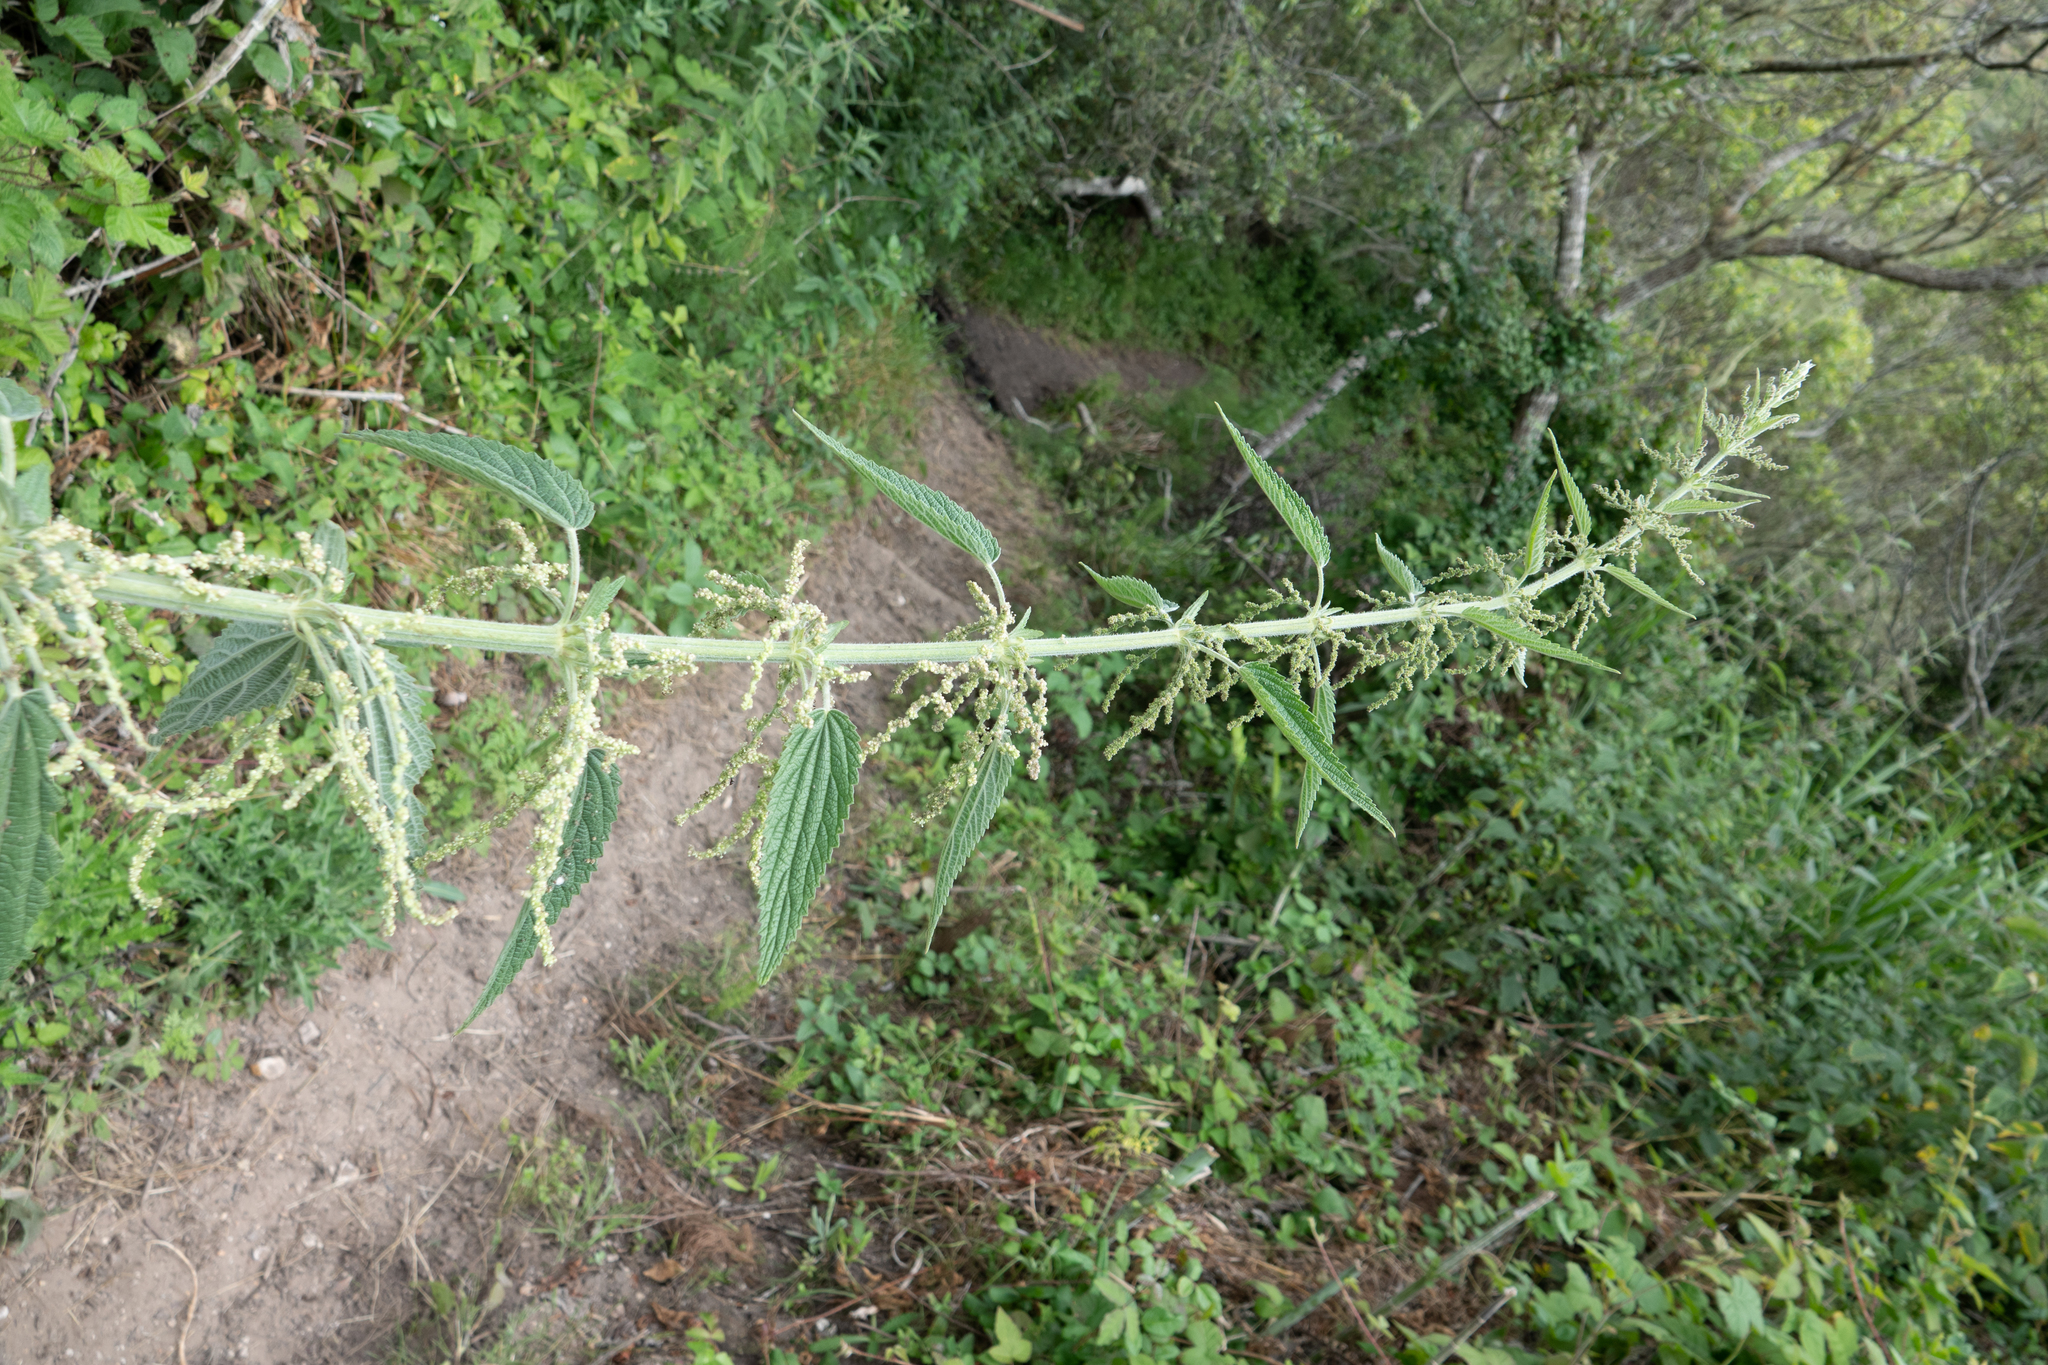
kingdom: Plantae
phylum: Tracheophyta
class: Magnoliopsida
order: Rosales
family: Urticaceae
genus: Urtica
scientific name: Urtica dioica
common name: Common nettle
